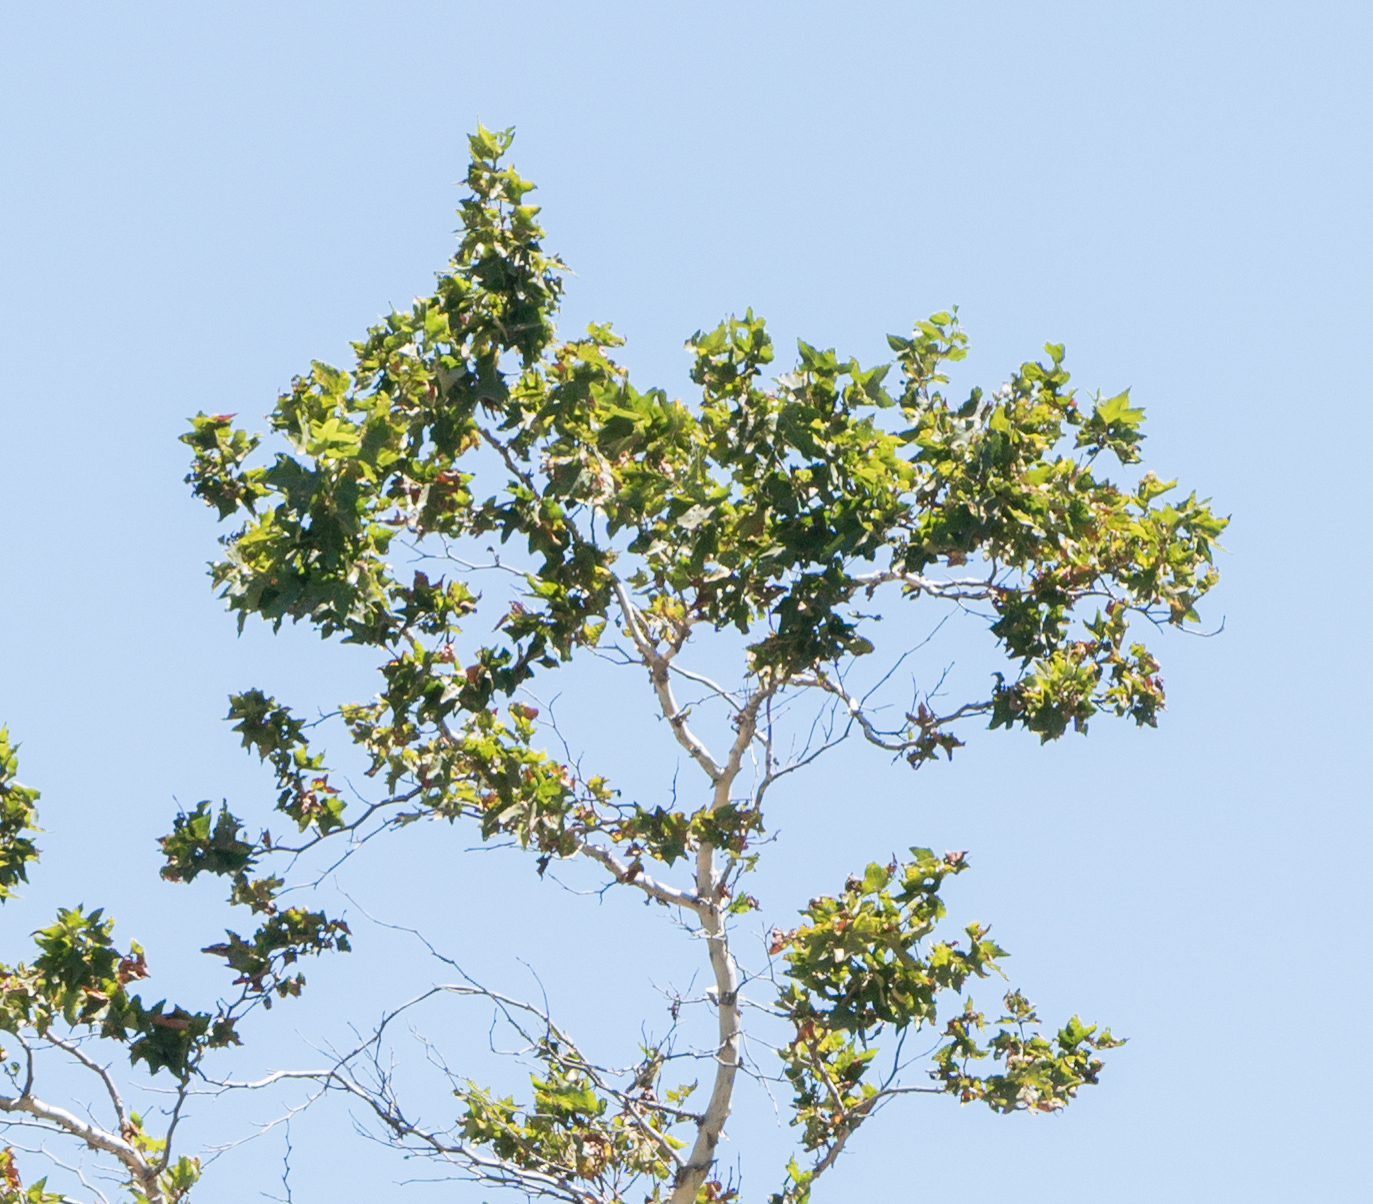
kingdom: Plantae
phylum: Tracheophyta
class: Magnoliopsida
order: Proteales
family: Platanaceae
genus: Platanus
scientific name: Platanus racemosa
